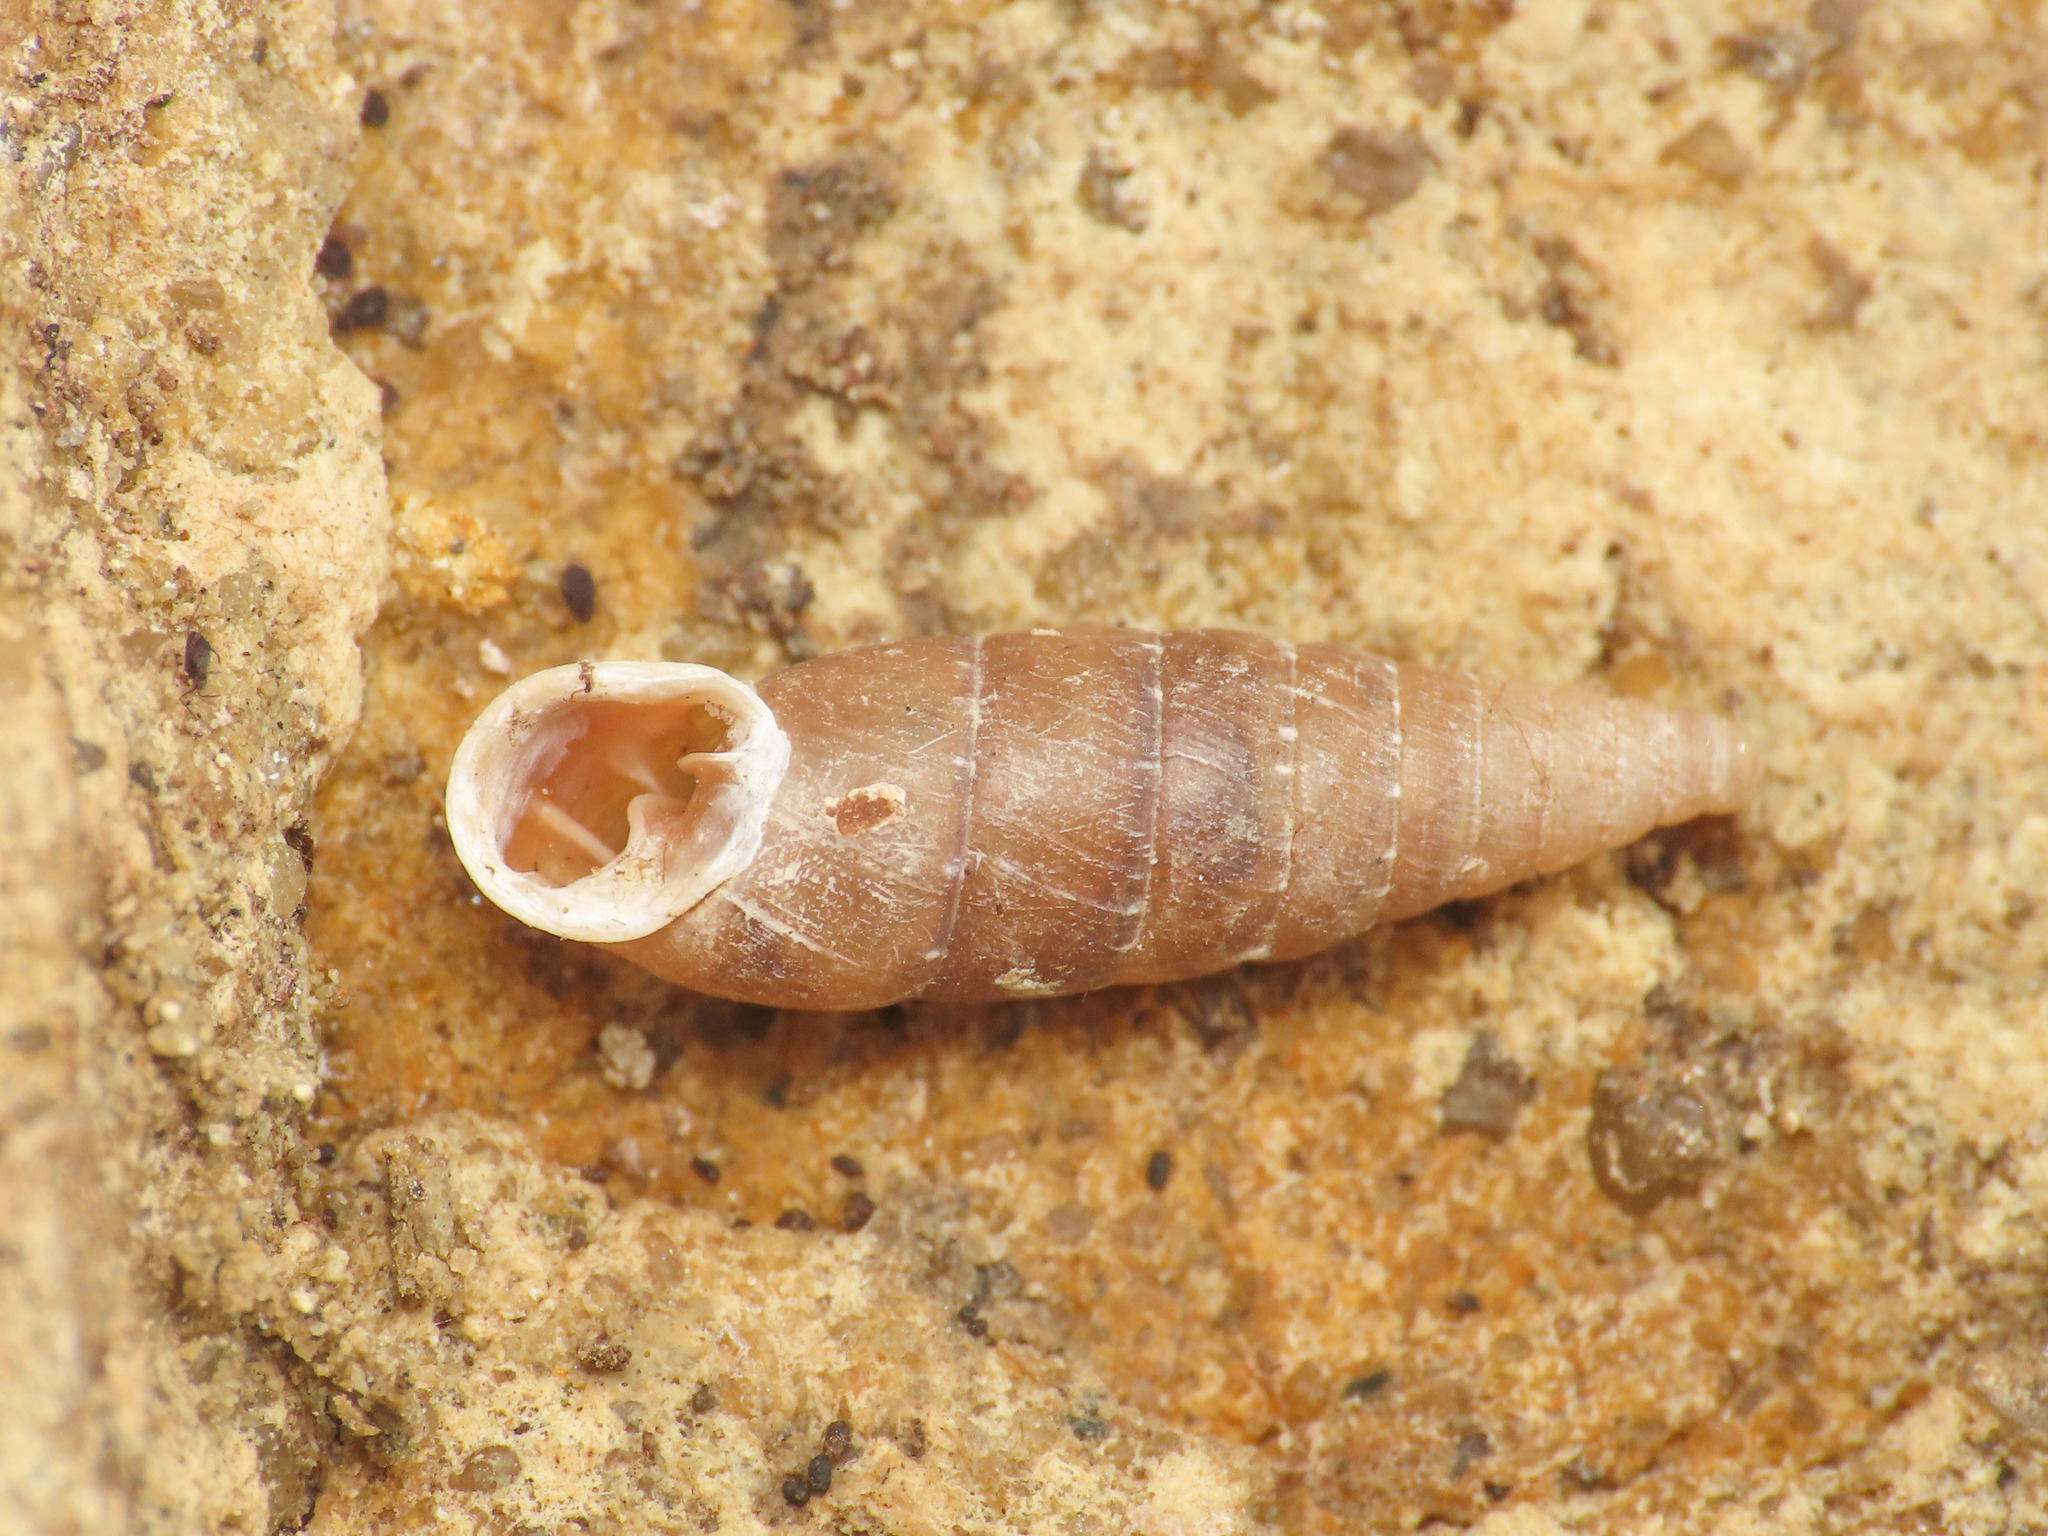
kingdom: Animalia
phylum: Mollusca
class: Gastropoda
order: Stylommatophora
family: Clausiliidae
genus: Gibbularia
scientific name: Gibbularia gibbula
